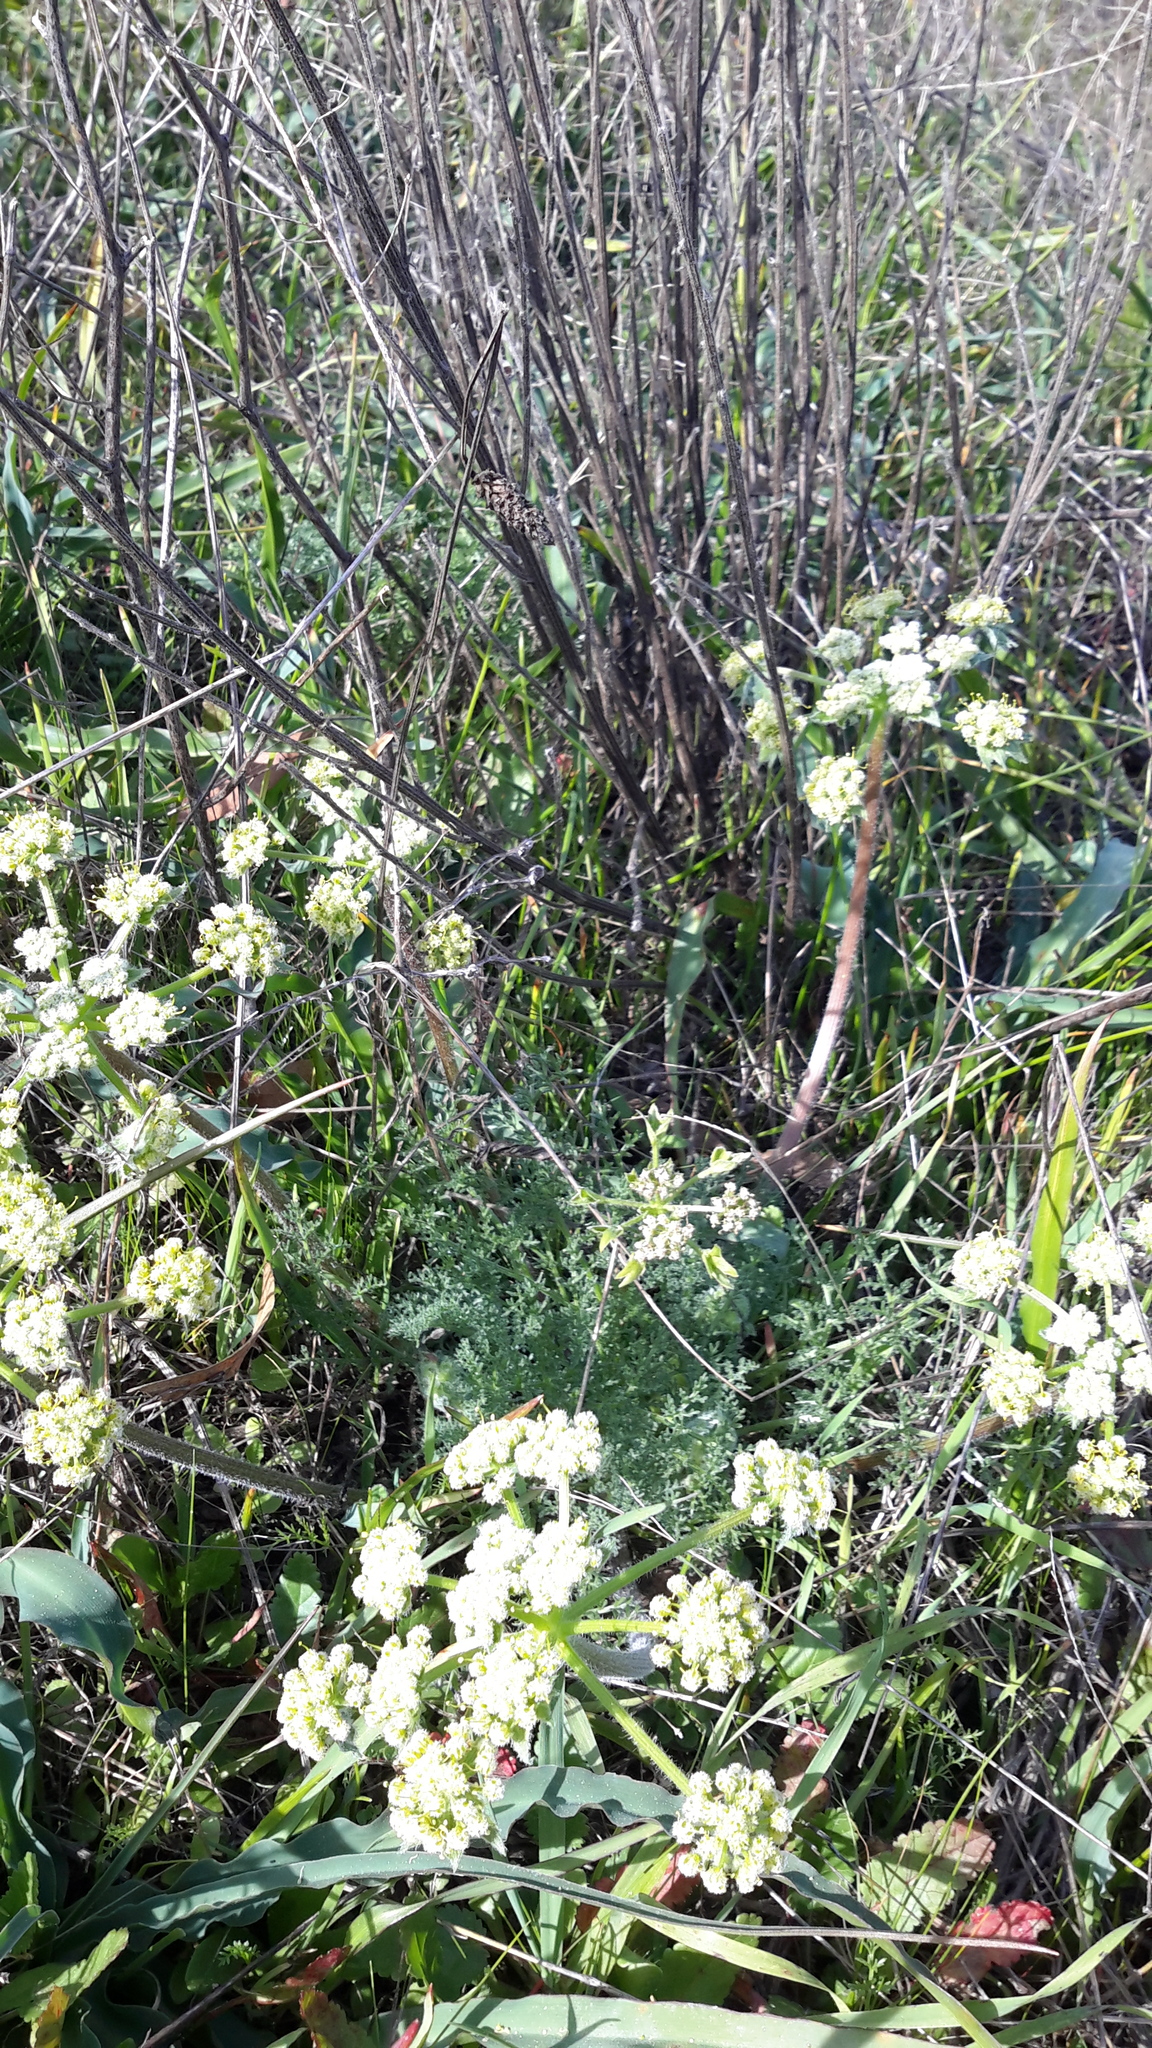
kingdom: Plantae
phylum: Tracheophyta
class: Magnoliopsida
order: Apiales
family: Apiaceae
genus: Lomatium
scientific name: Lomatium dasycarpum
